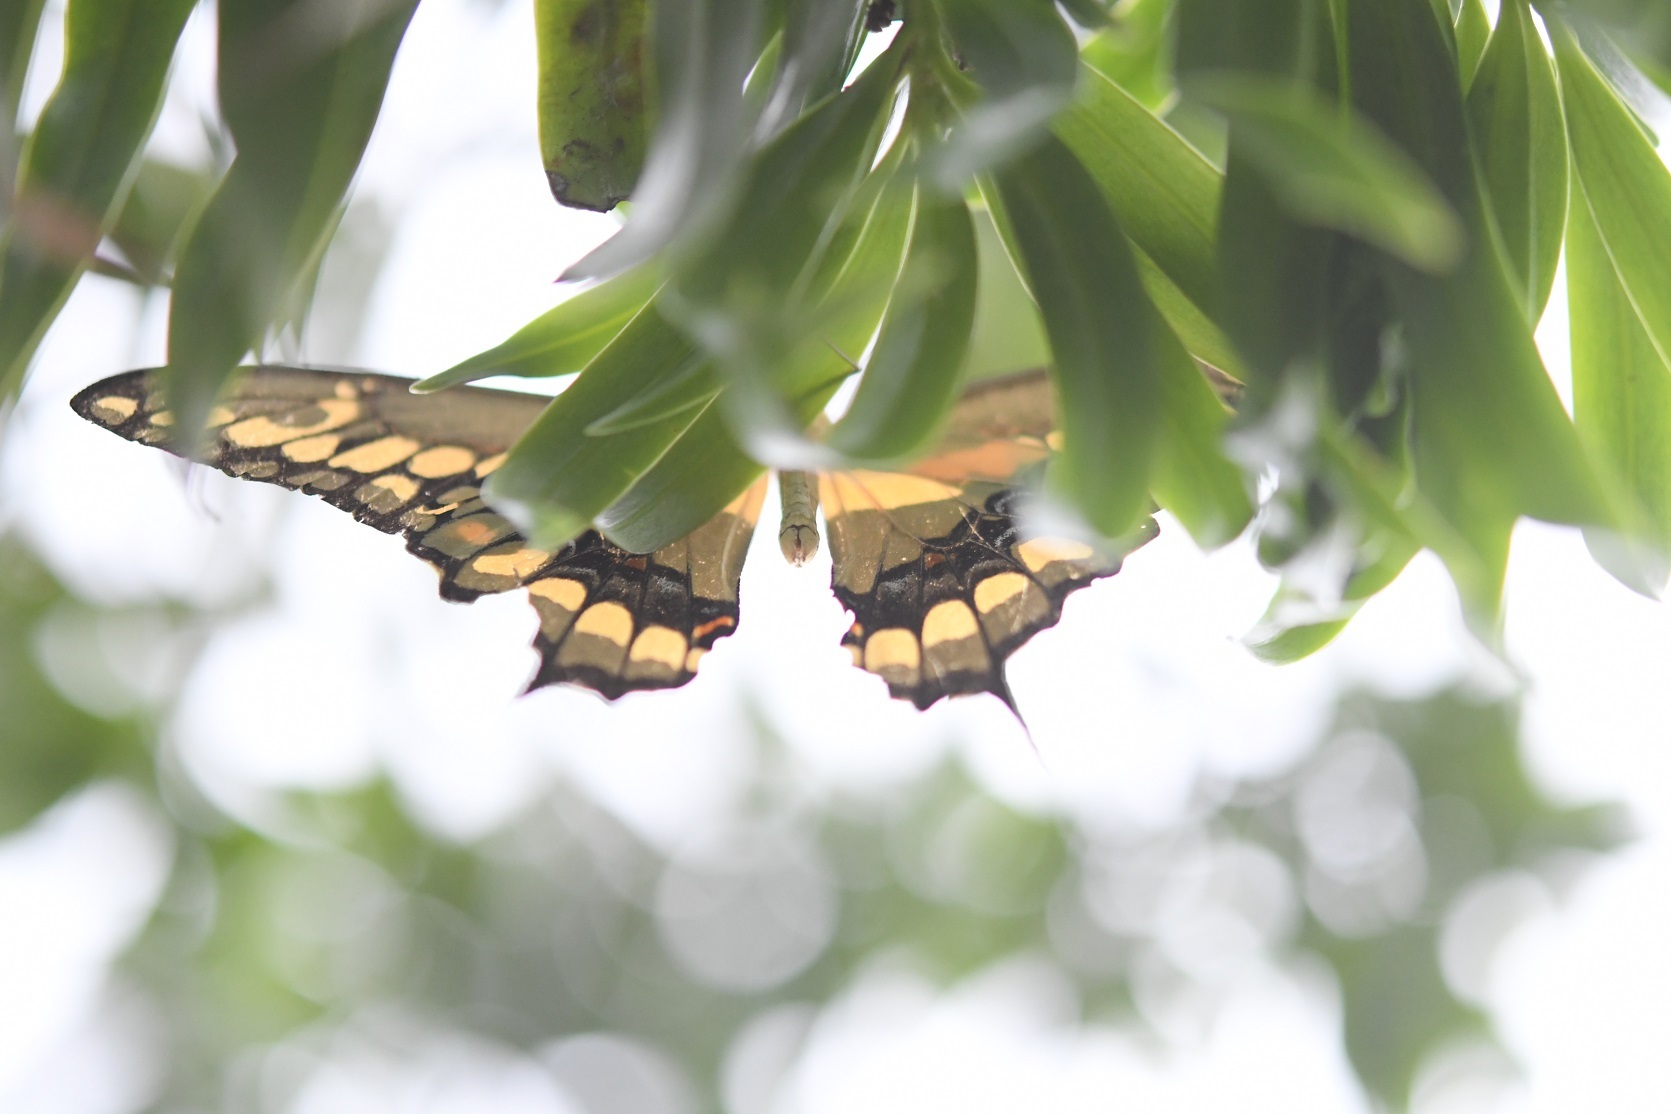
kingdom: Animalia
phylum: Arthropoda
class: Insecta
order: Lepidoptera
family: Papilionidae
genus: Papilio
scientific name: Papilio rumiko
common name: Western giant swallowtail
